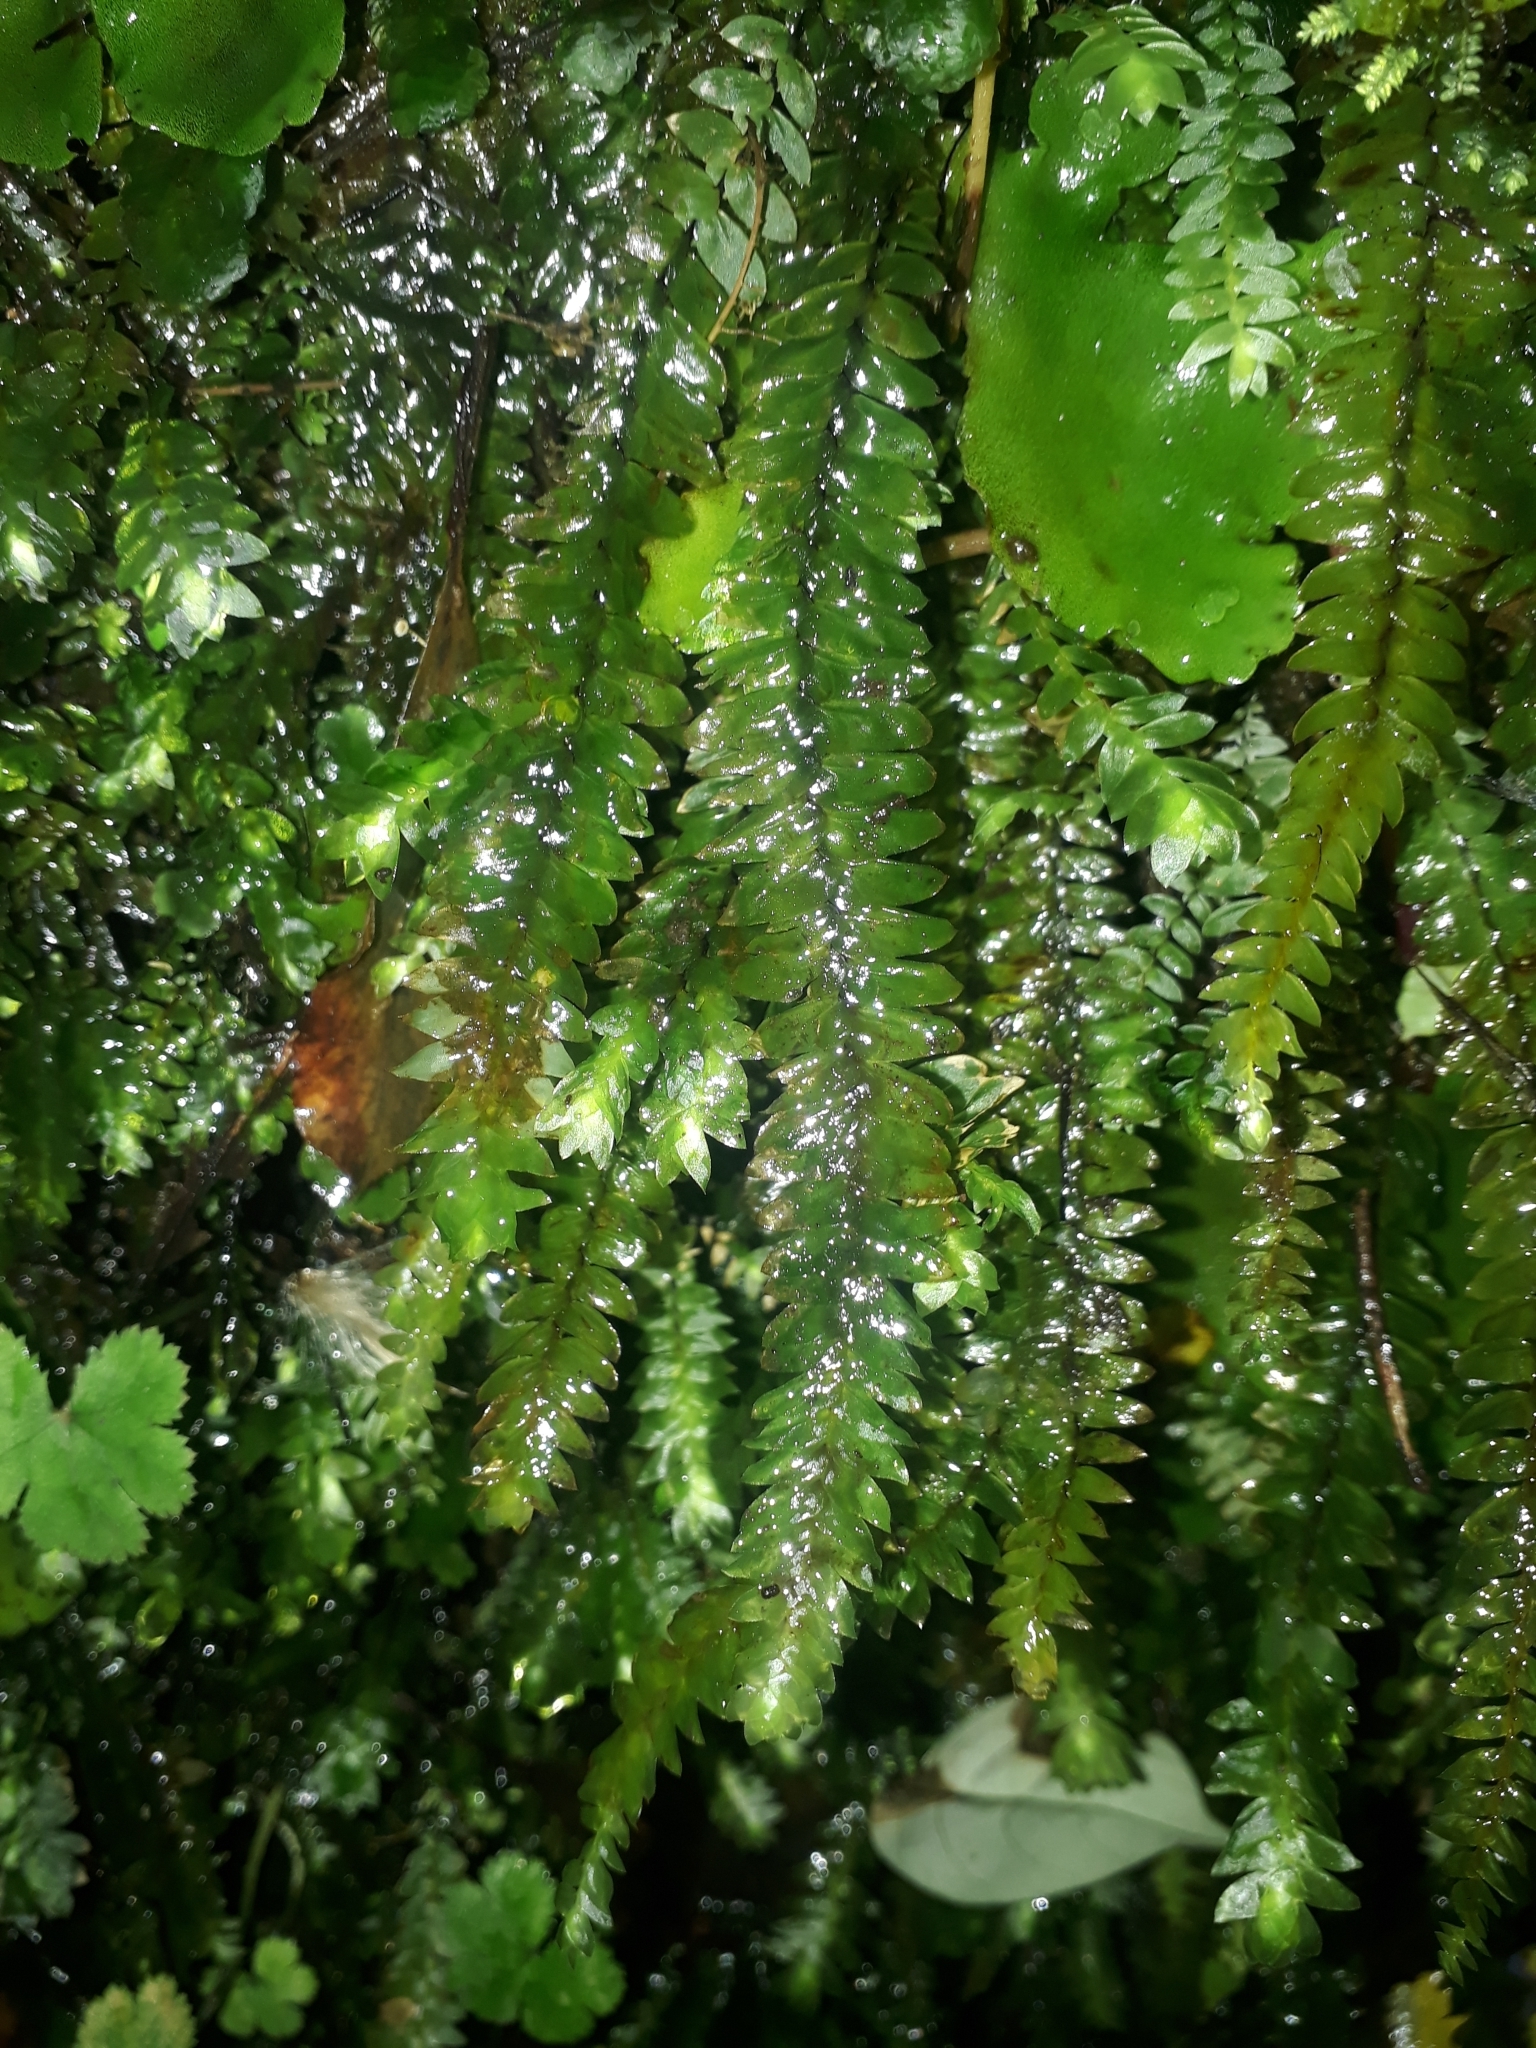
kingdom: Plantae
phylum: Bryophyta
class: Bryopsida
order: Hypopterygiales
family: Hypopterygiaceae
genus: Cyathophorum
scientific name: Cyathophorum bulbosum
